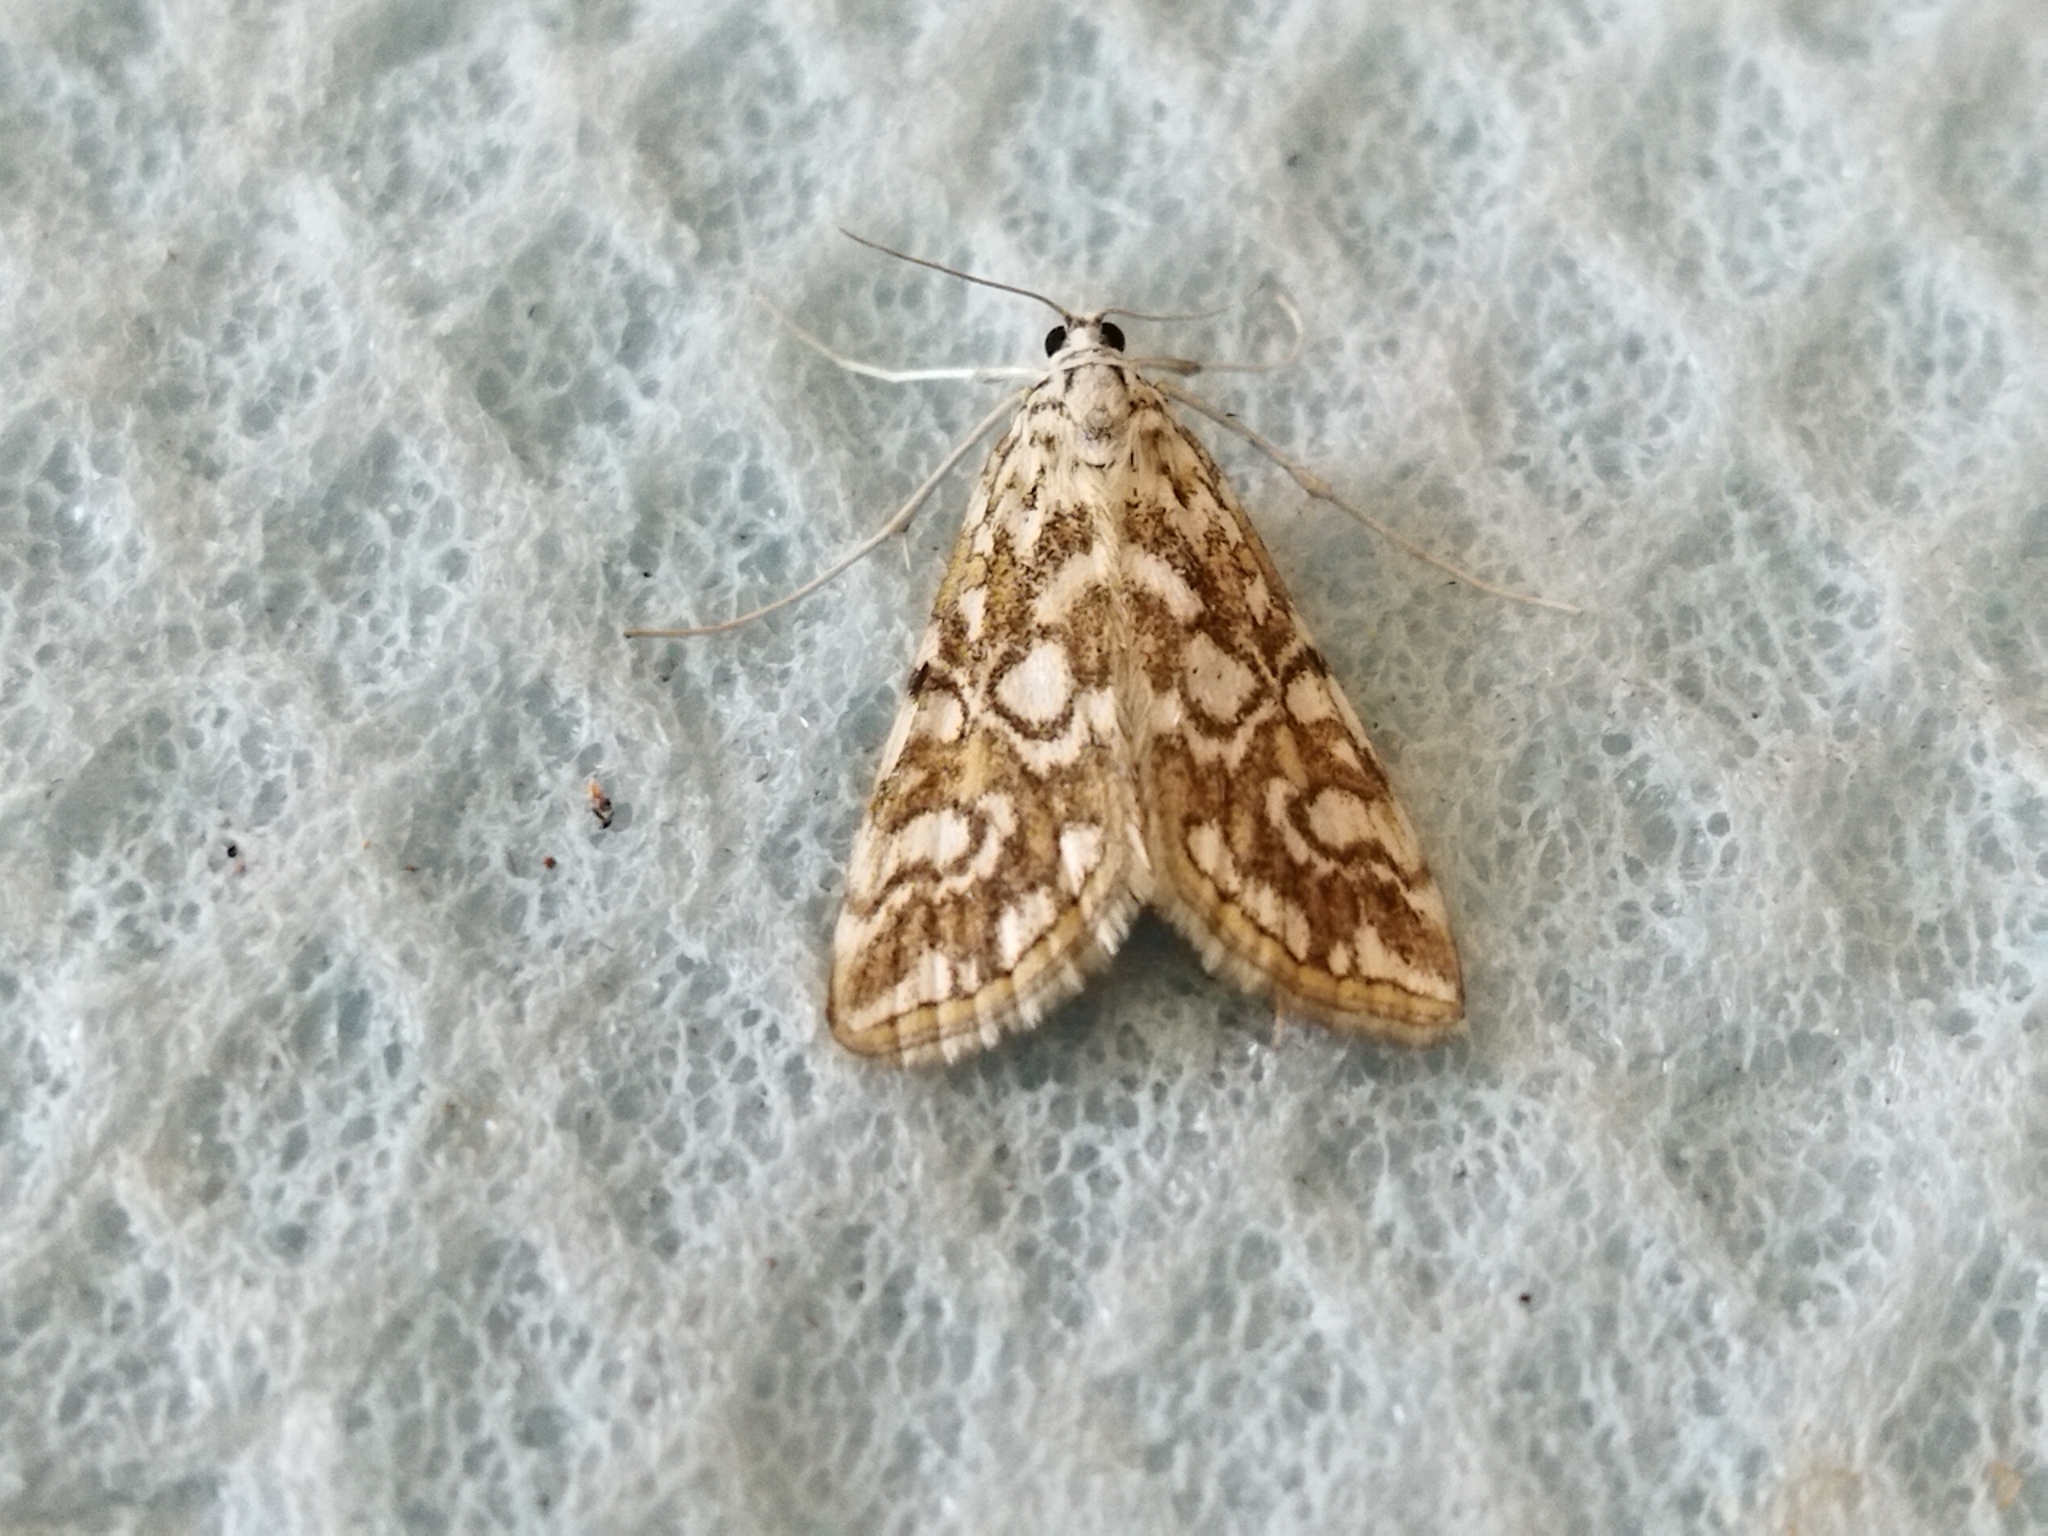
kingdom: Animalia
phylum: Arthropoda
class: Insecta
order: Lepidoptera
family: Crambidae
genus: Elophila
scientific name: Elophila nymphaeata
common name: Brown china-mark
